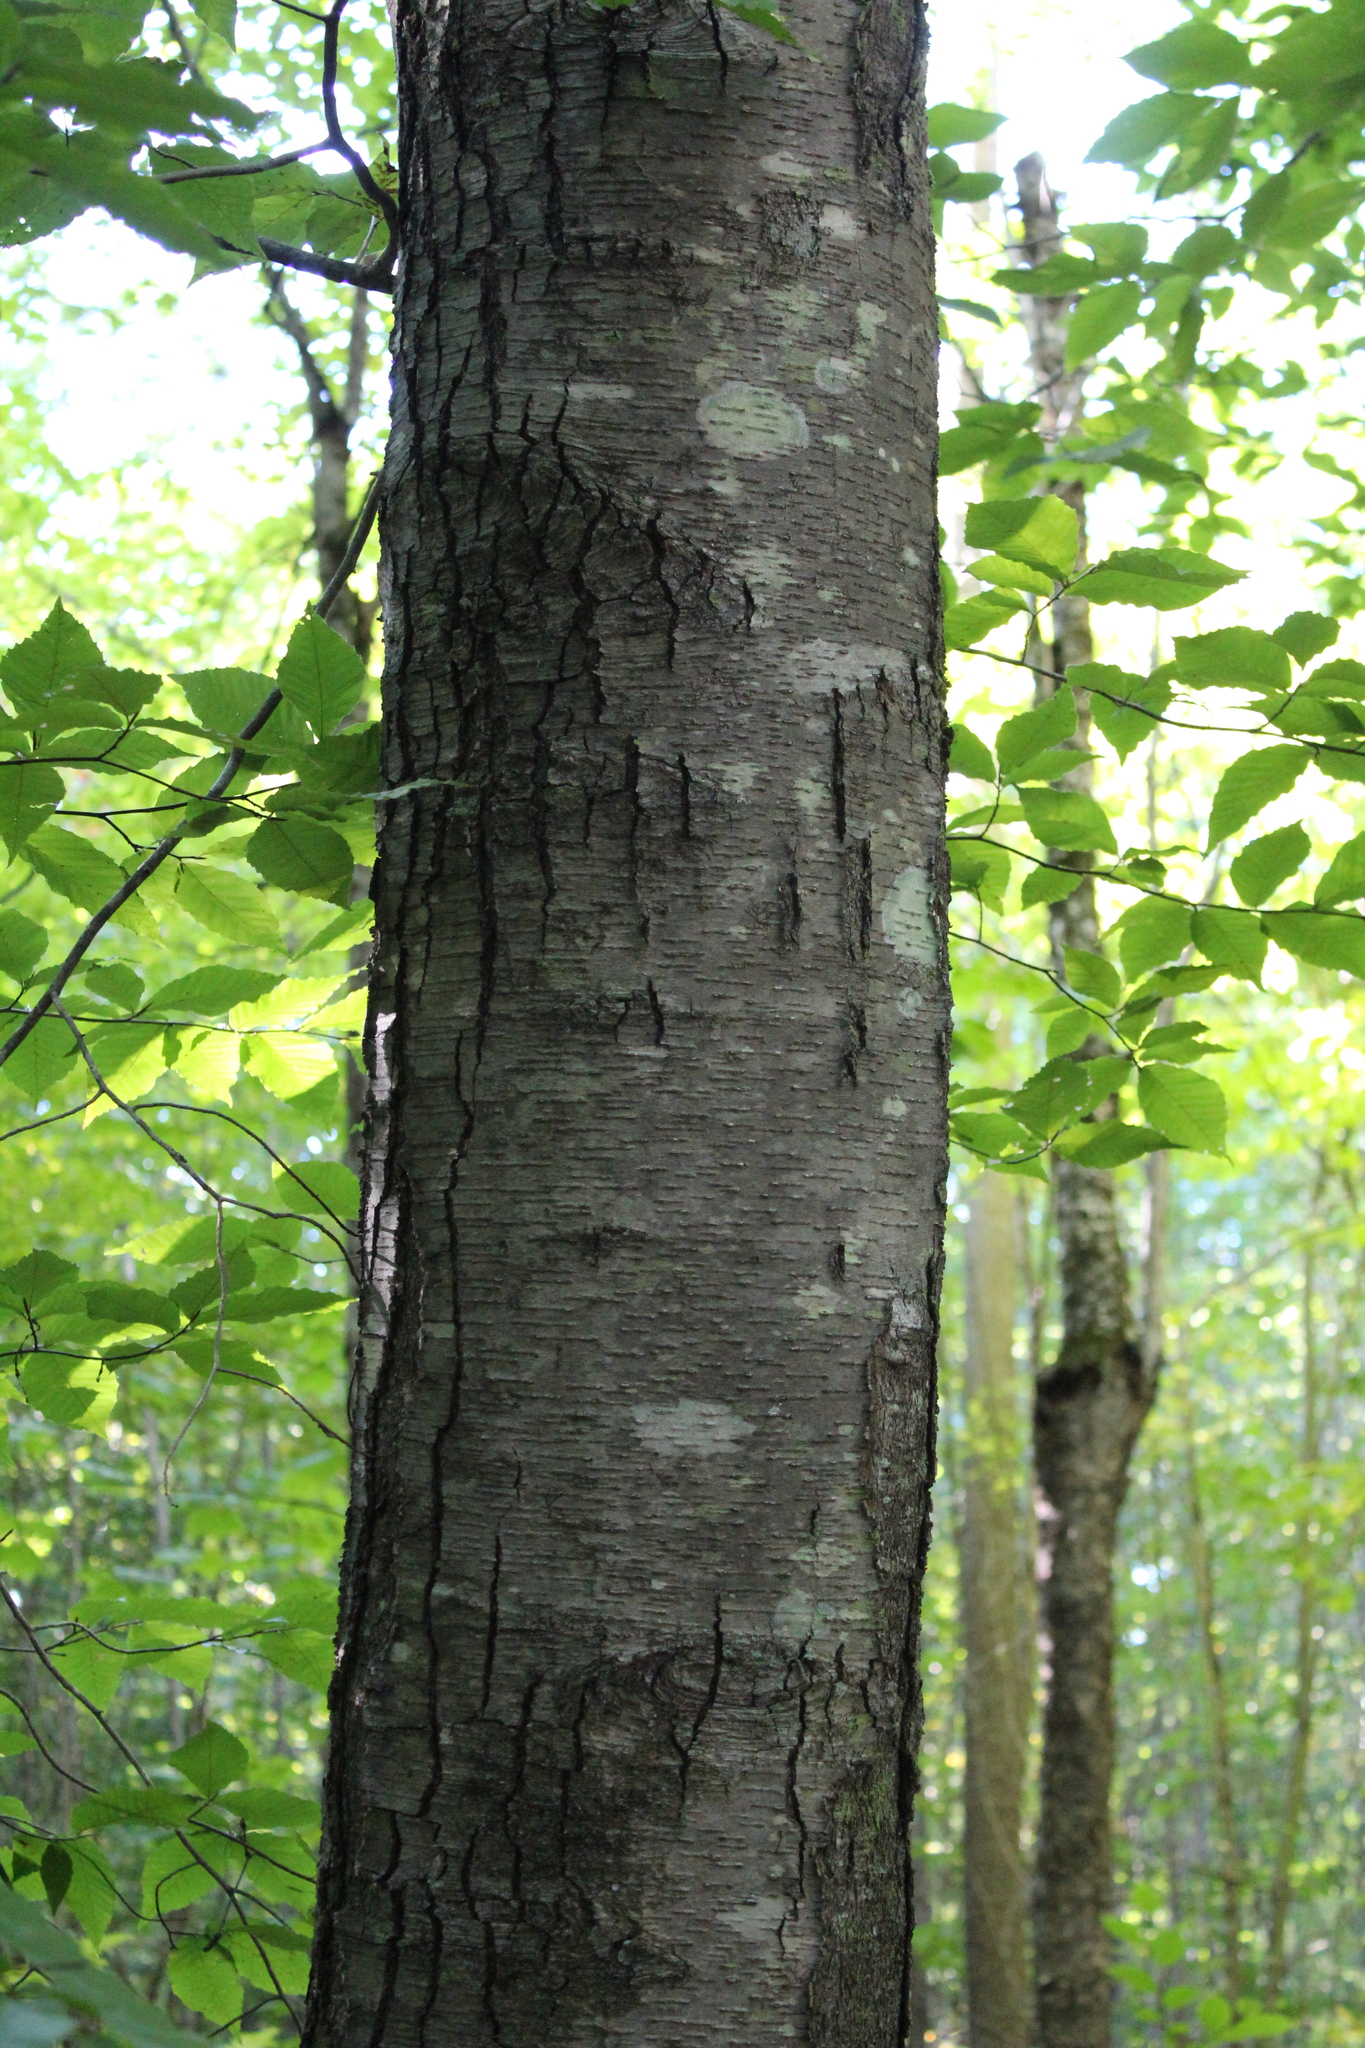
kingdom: Plantae
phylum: Tracheophyta
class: Magnoliopsida
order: Fagales
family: Betulaceae
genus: Betula
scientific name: Betula lenta
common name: Black birch
